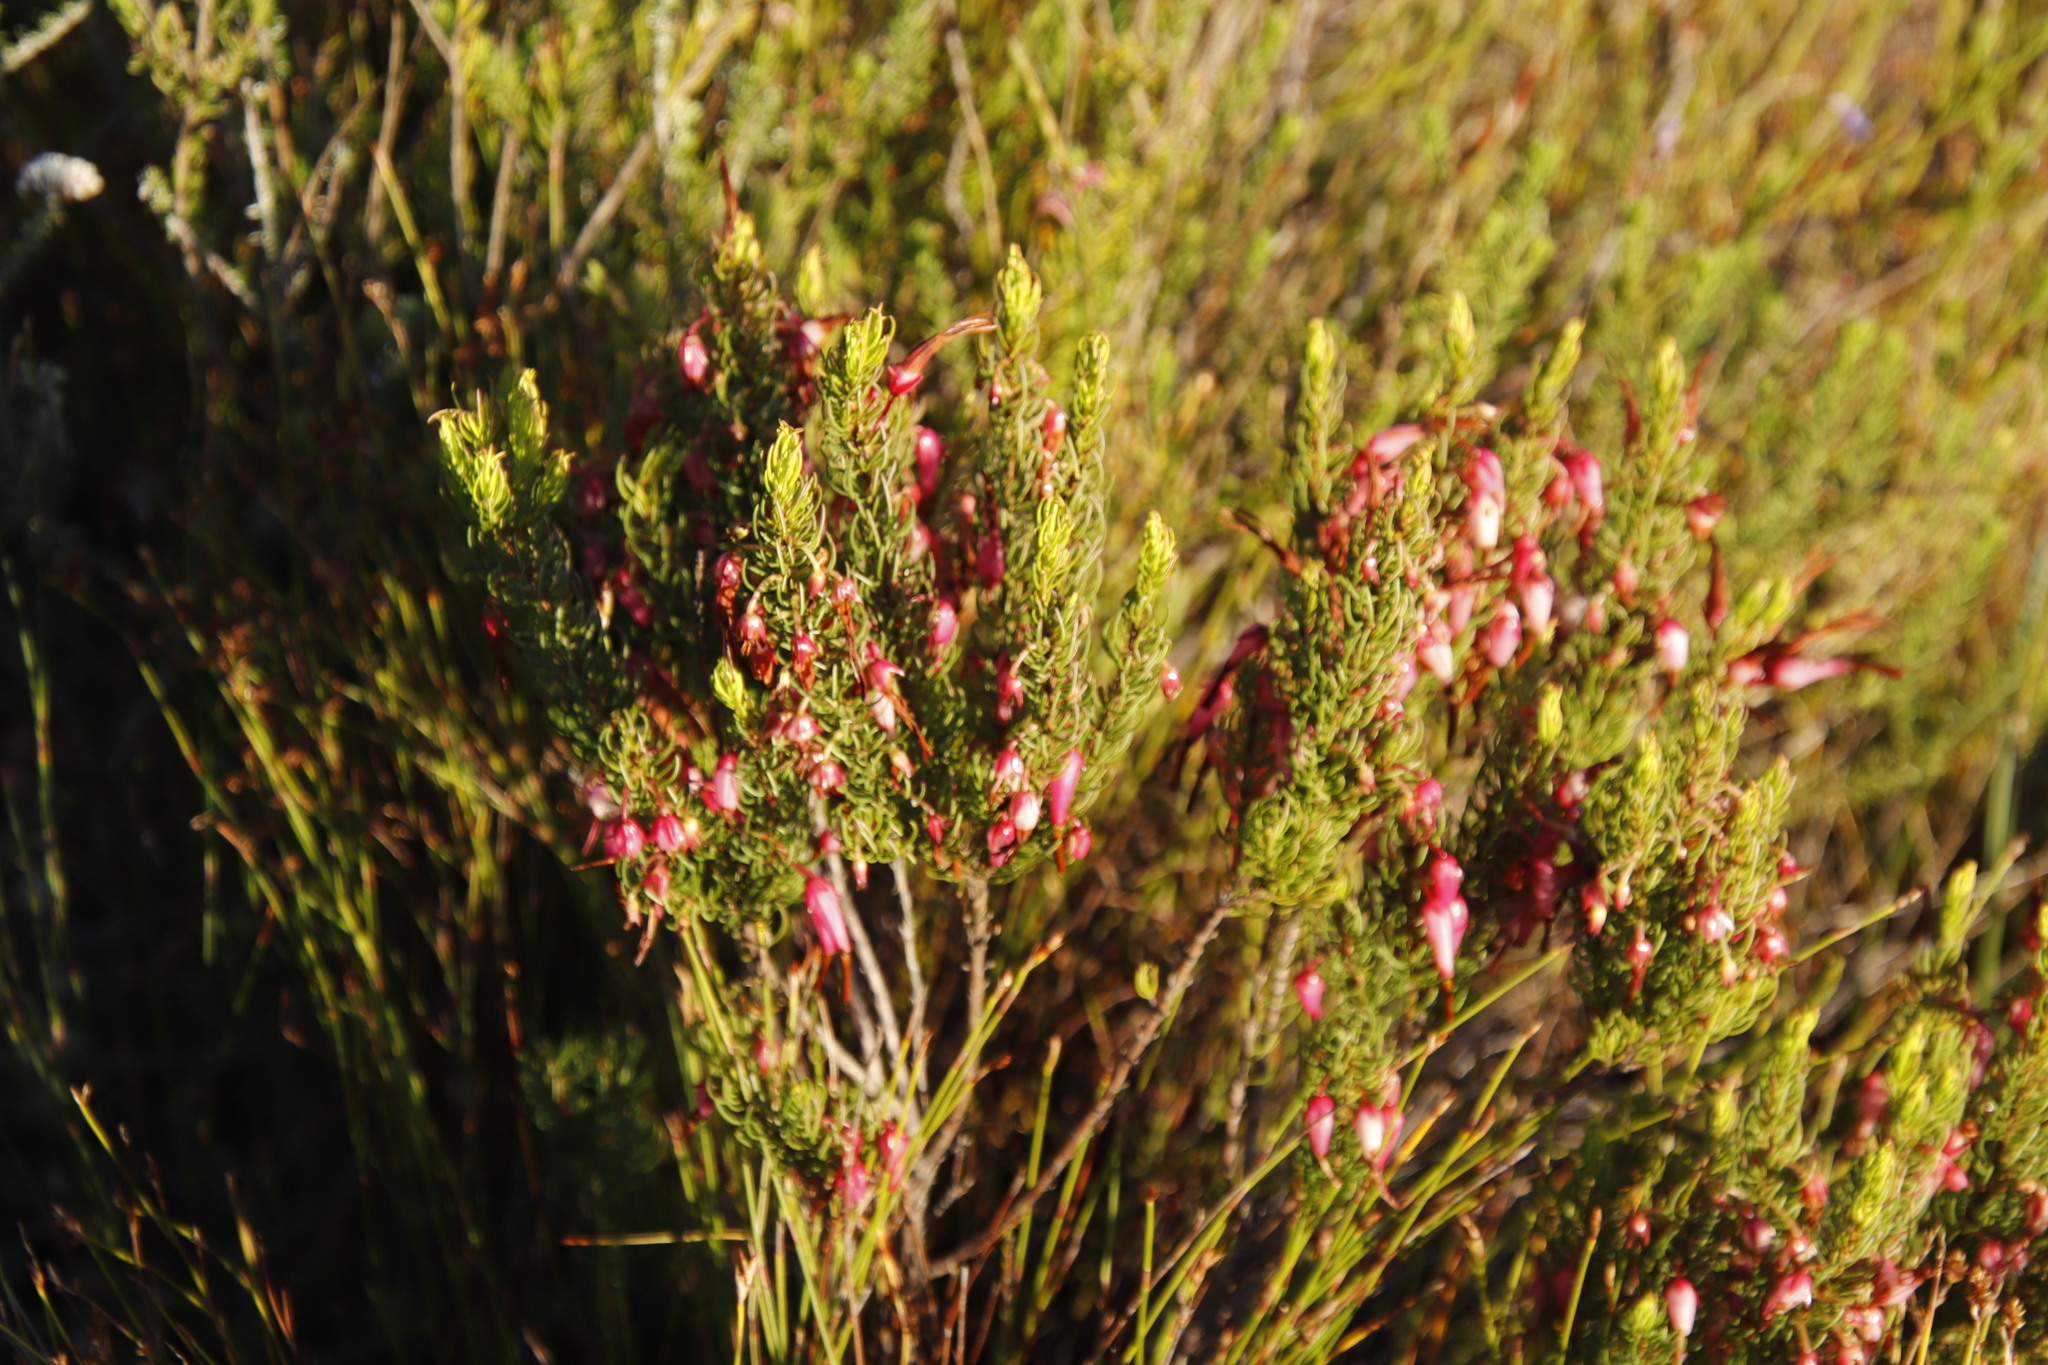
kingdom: Plantae
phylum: Tracheophyta
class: Magnoliopsida
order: Ericales
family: Ericaceae
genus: Erica
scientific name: Erica plukenetii
